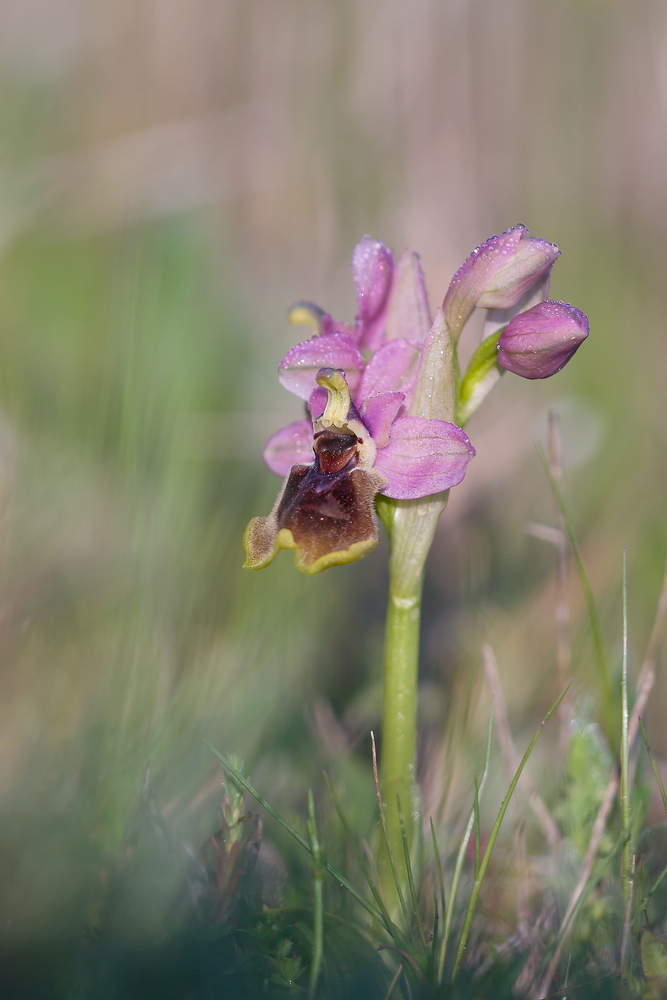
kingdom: Plantae
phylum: Tracheophyta
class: Liliopsida
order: Asparagales
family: Orchidaceae
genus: Ophrys
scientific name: Ophrys tenthredinifera
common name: Sawfly orchid
